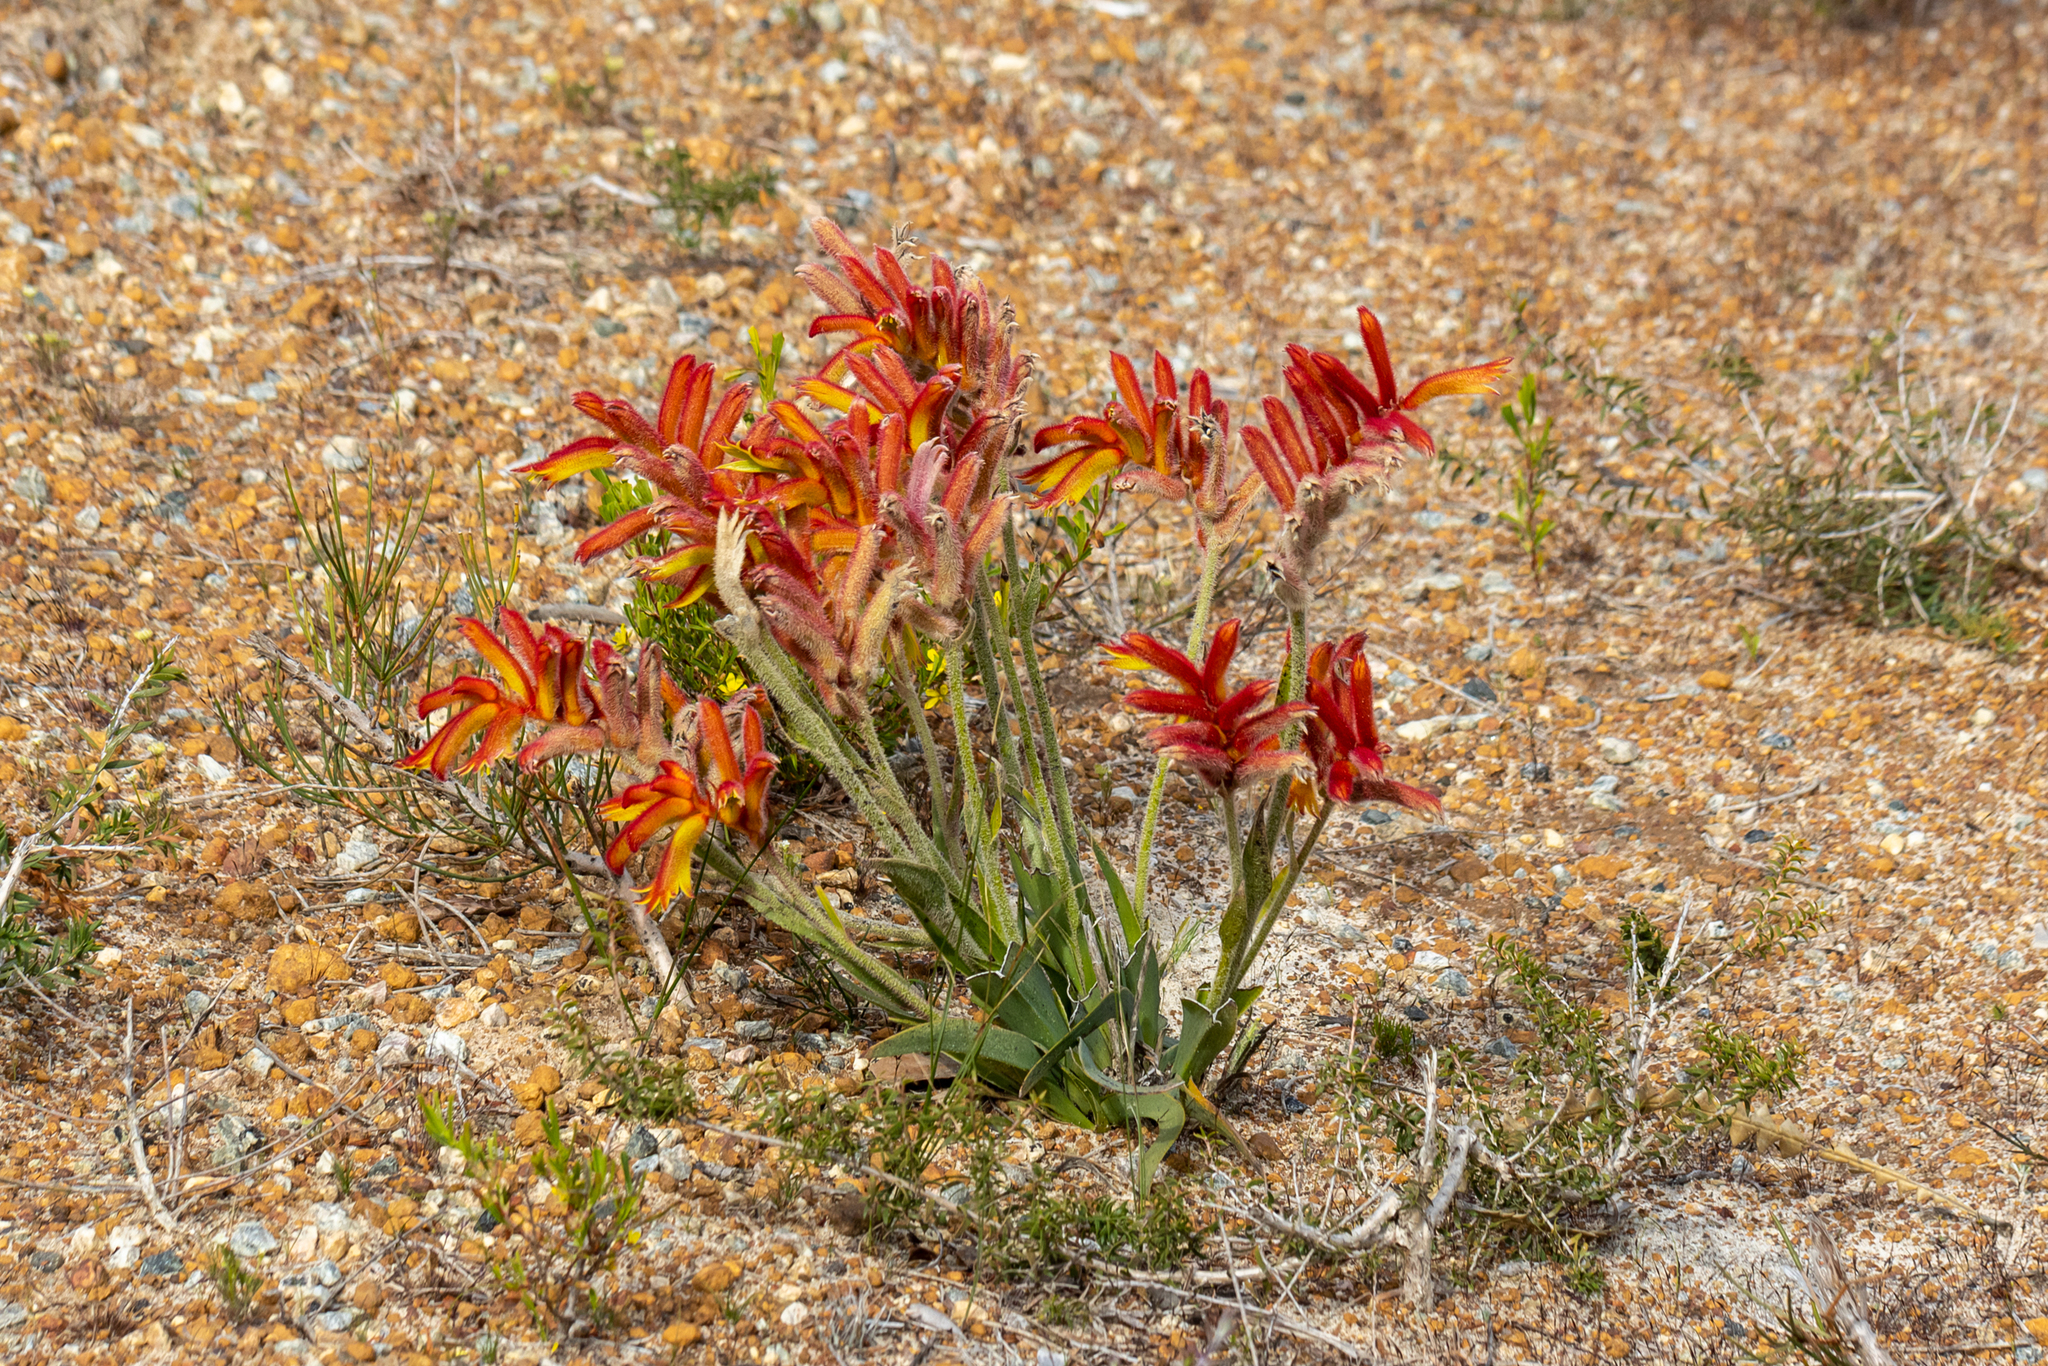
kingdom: Plantae
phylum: Tracheophyta
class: Liliopsida
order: Commelinales
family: Haemodoraceae
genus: Anigozanthos
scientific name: Anigozanthos humilis
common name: Cat's-paw
